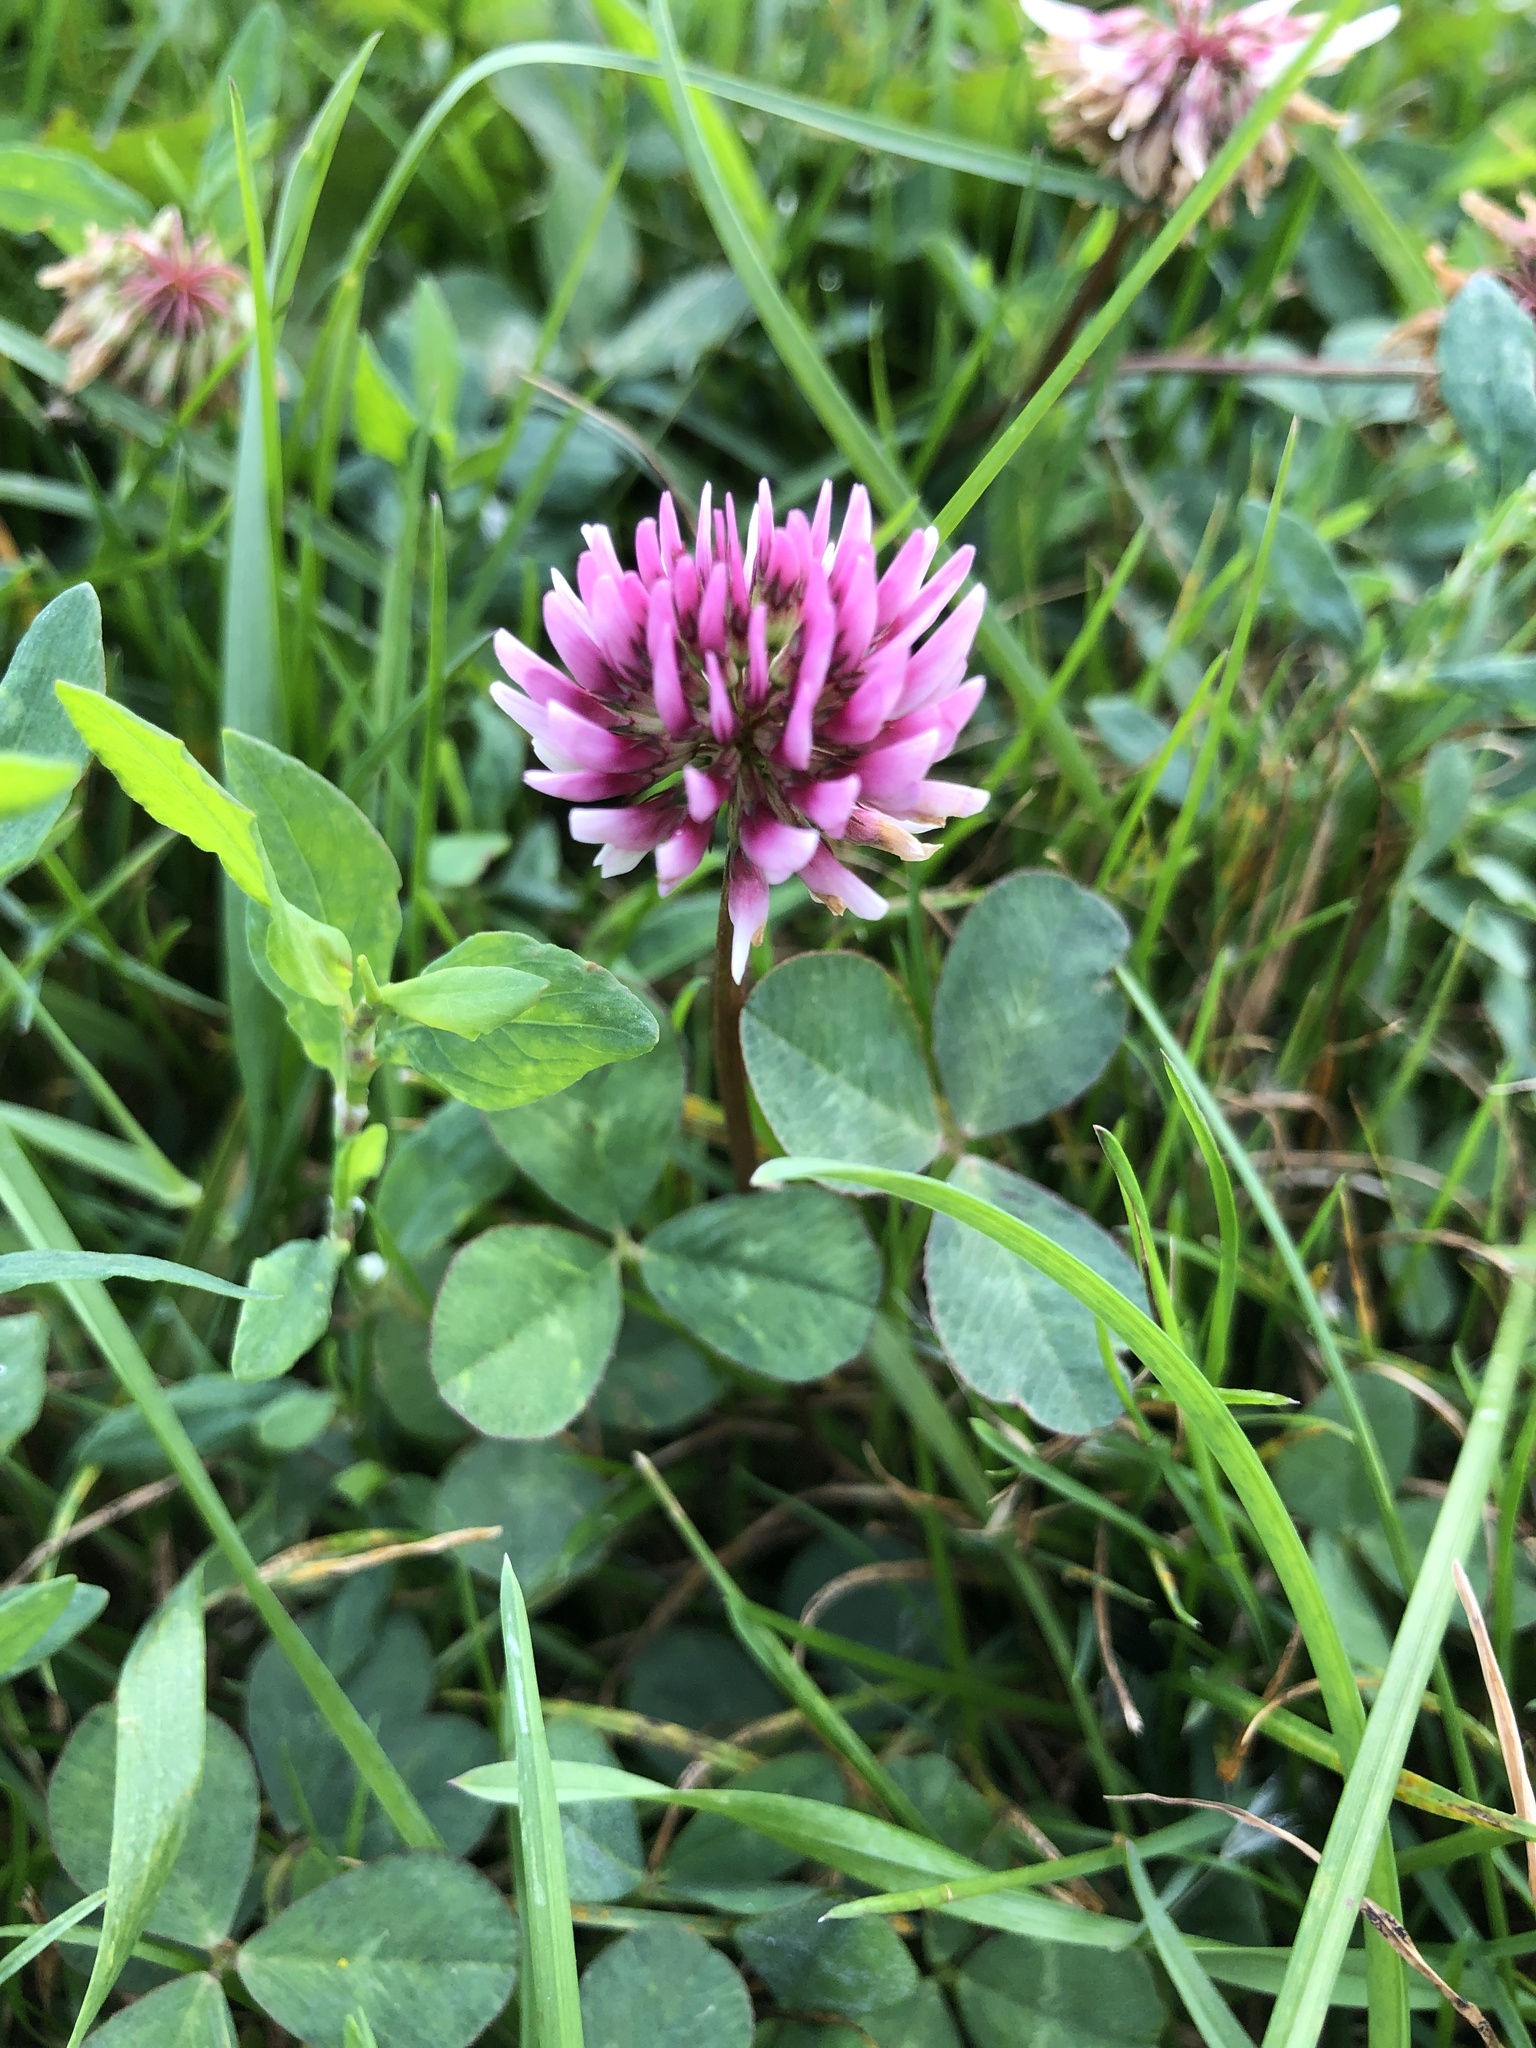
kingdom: Plantae
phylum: Tracheophyta
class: Magnoliopsida
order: Fabales
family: Fabaceae
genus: Trifolium
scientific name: Trifolium repens
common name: White clover
